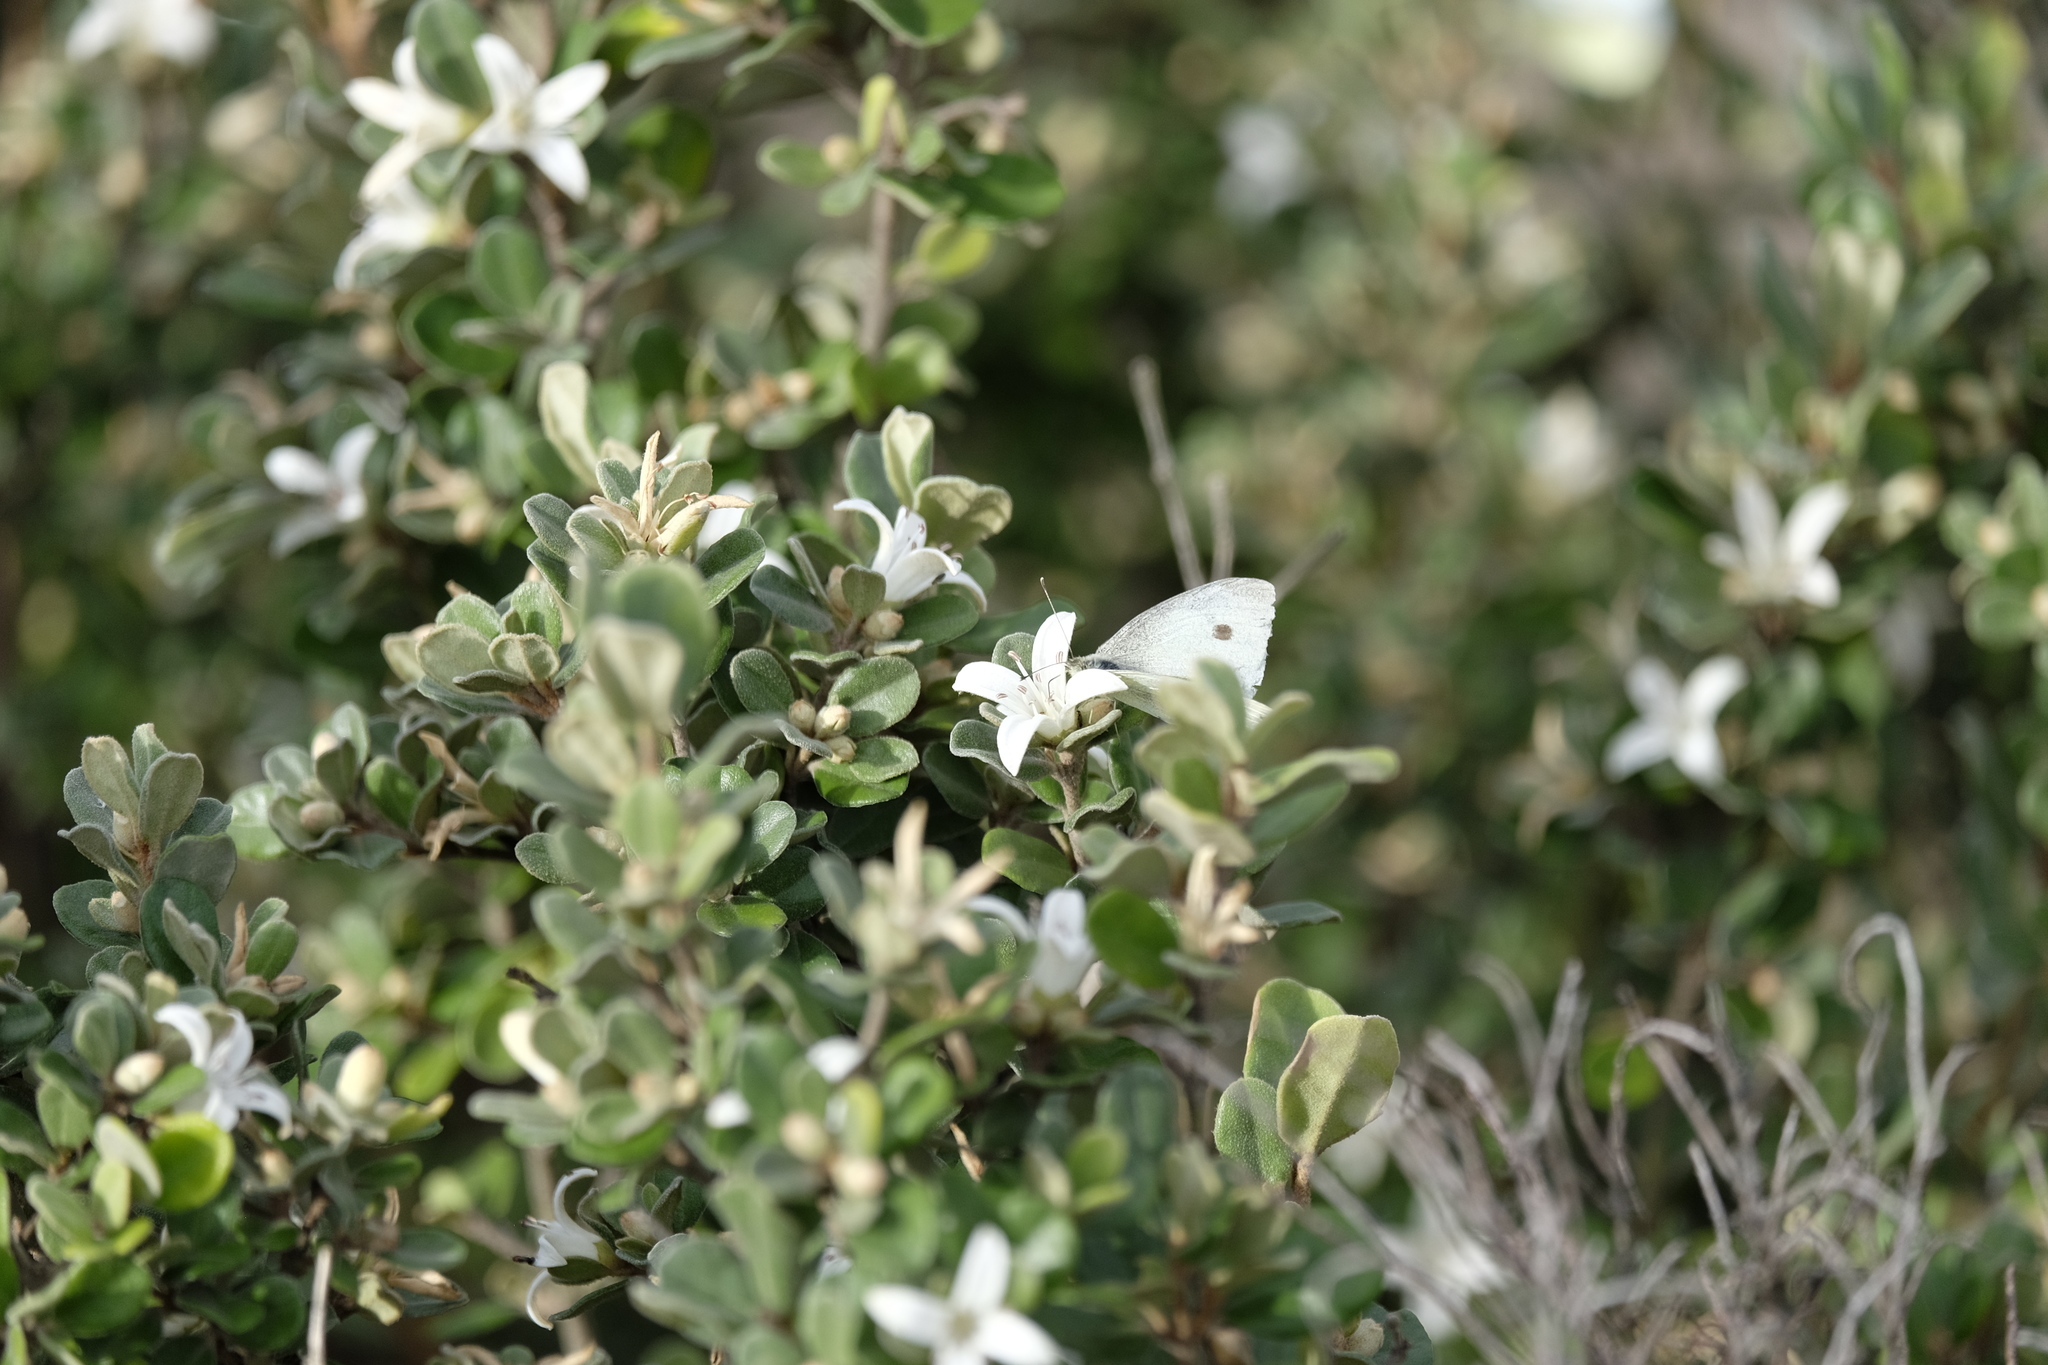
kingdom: Plantae
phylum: Tracheophyta
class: Magnoliopsida
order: Sapindales
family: Rutaceae
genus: Correa
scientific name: Correa alba
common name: White correa
